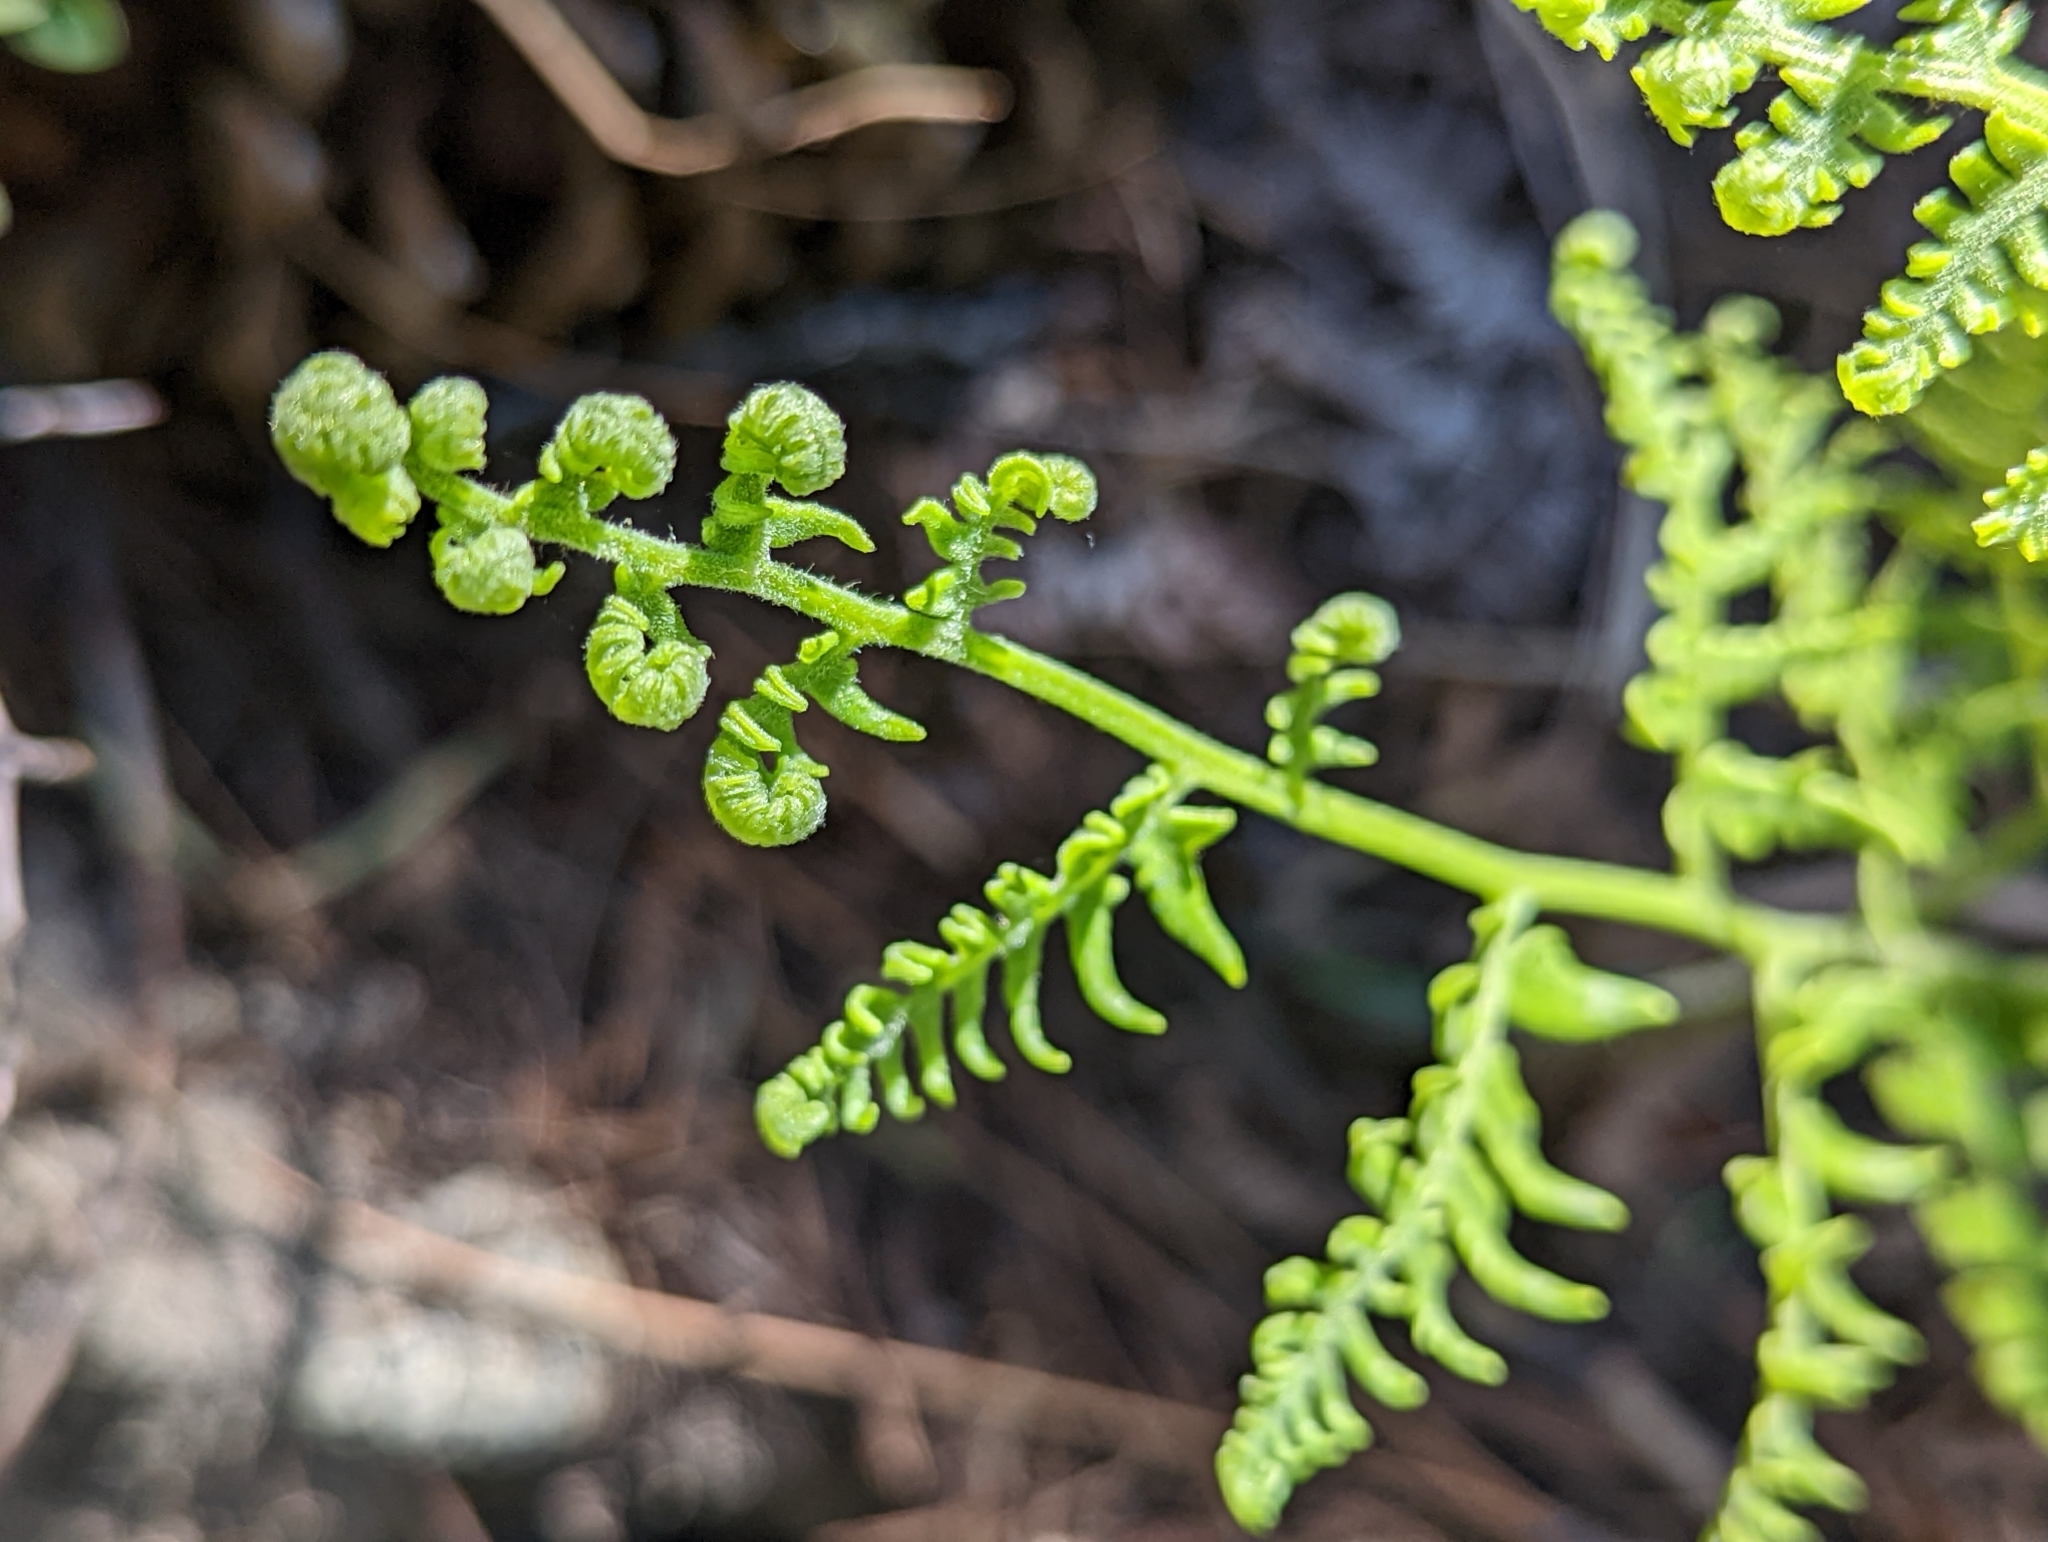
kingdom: Plantae
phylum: Tracheophyta
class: Polypodiopsida
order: Polypodiales
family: Dennstaedtiaceae
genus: Pteridium
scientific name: Pteridium aquilinum
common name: Bracken
